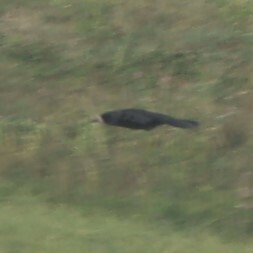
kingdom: Animalia
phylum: Chordata
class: Aves
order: Passeriformes
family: Corvidae
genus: Corvus
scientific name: Corvus frugilegus
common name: Rook
